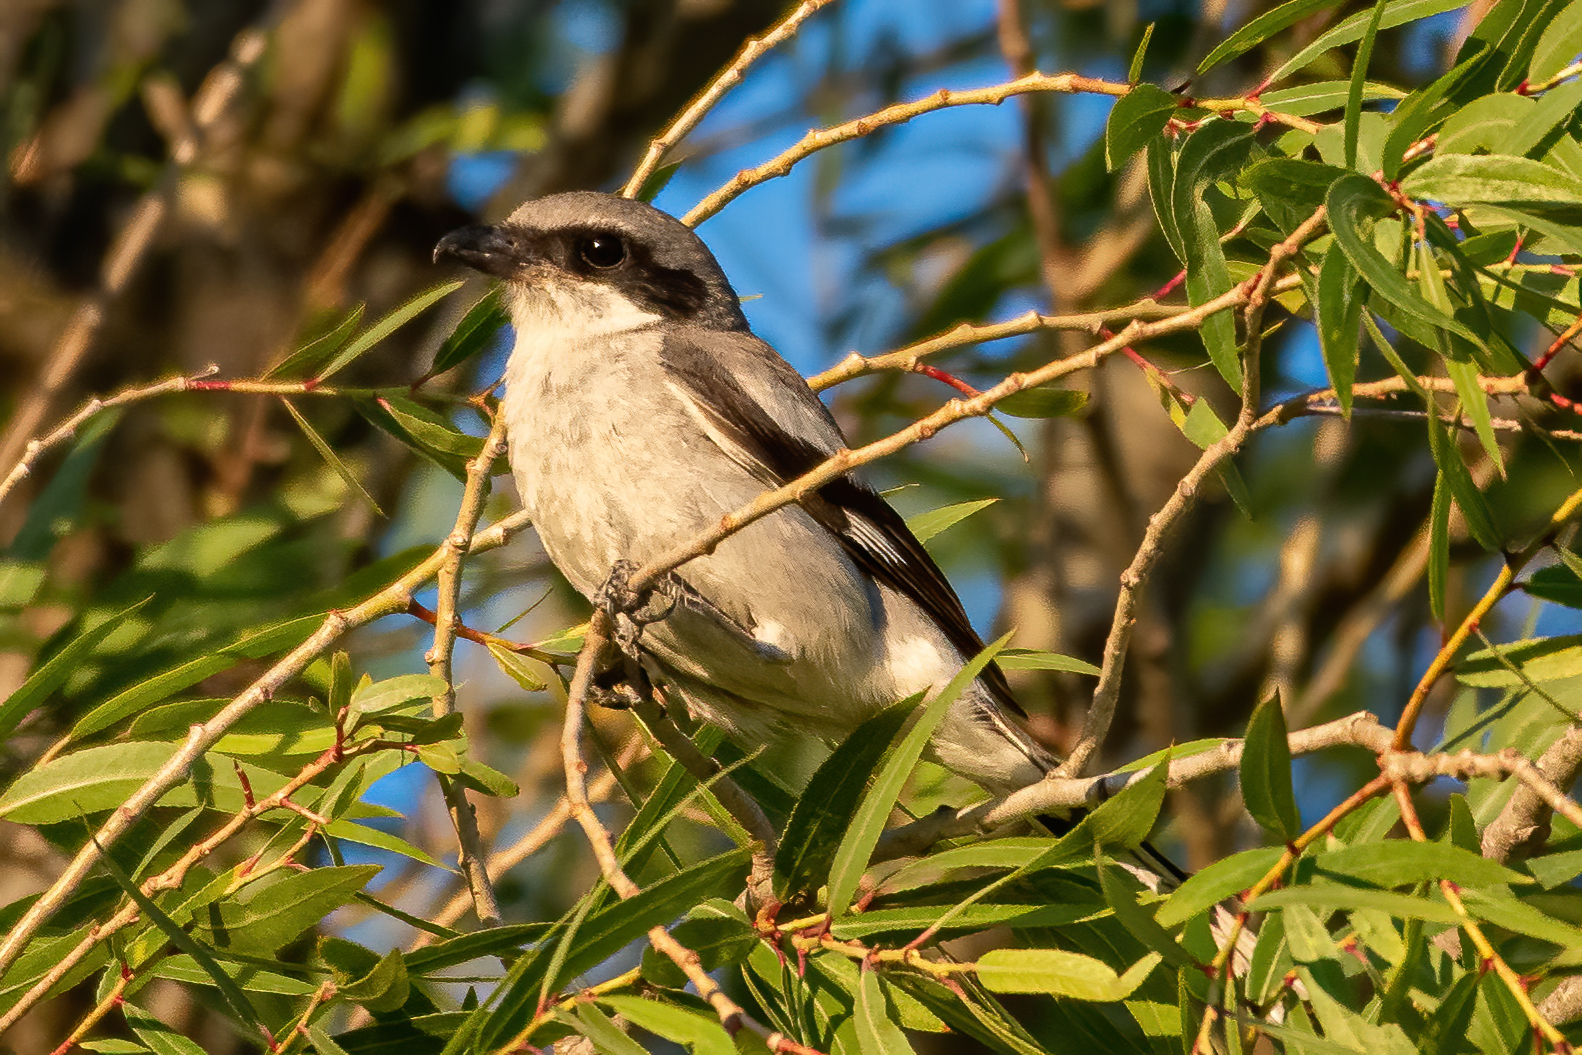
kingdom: Animalia
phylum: Chordata
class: Aves
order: Passeriformes
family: Laniidae
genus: Lanius
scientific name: Lanius ludovicianus
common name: Loggerhead shrike
